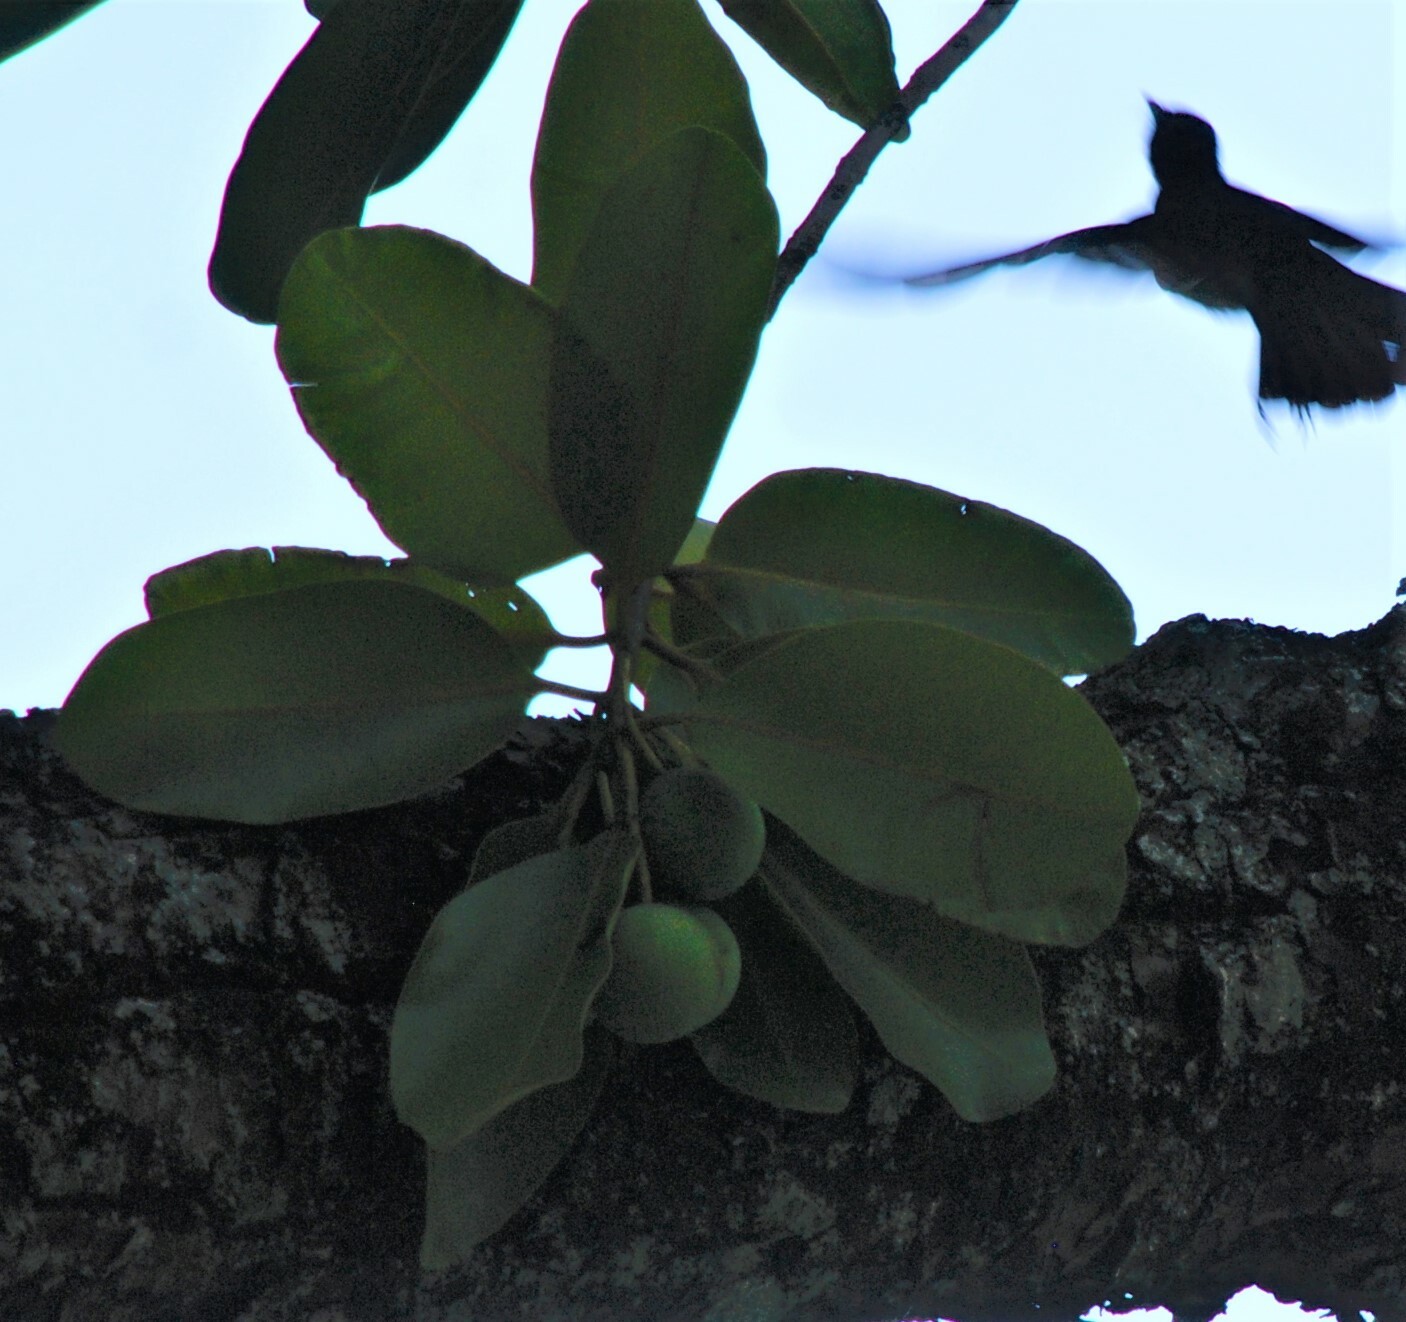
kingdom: Plantae
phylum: Tracheophyta
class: Magnoliopsida
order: Malpighiales
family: Calophyllaceae
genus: Calophyllum
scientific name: Calophyllum inophyllum
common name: Alexandrian laurel
